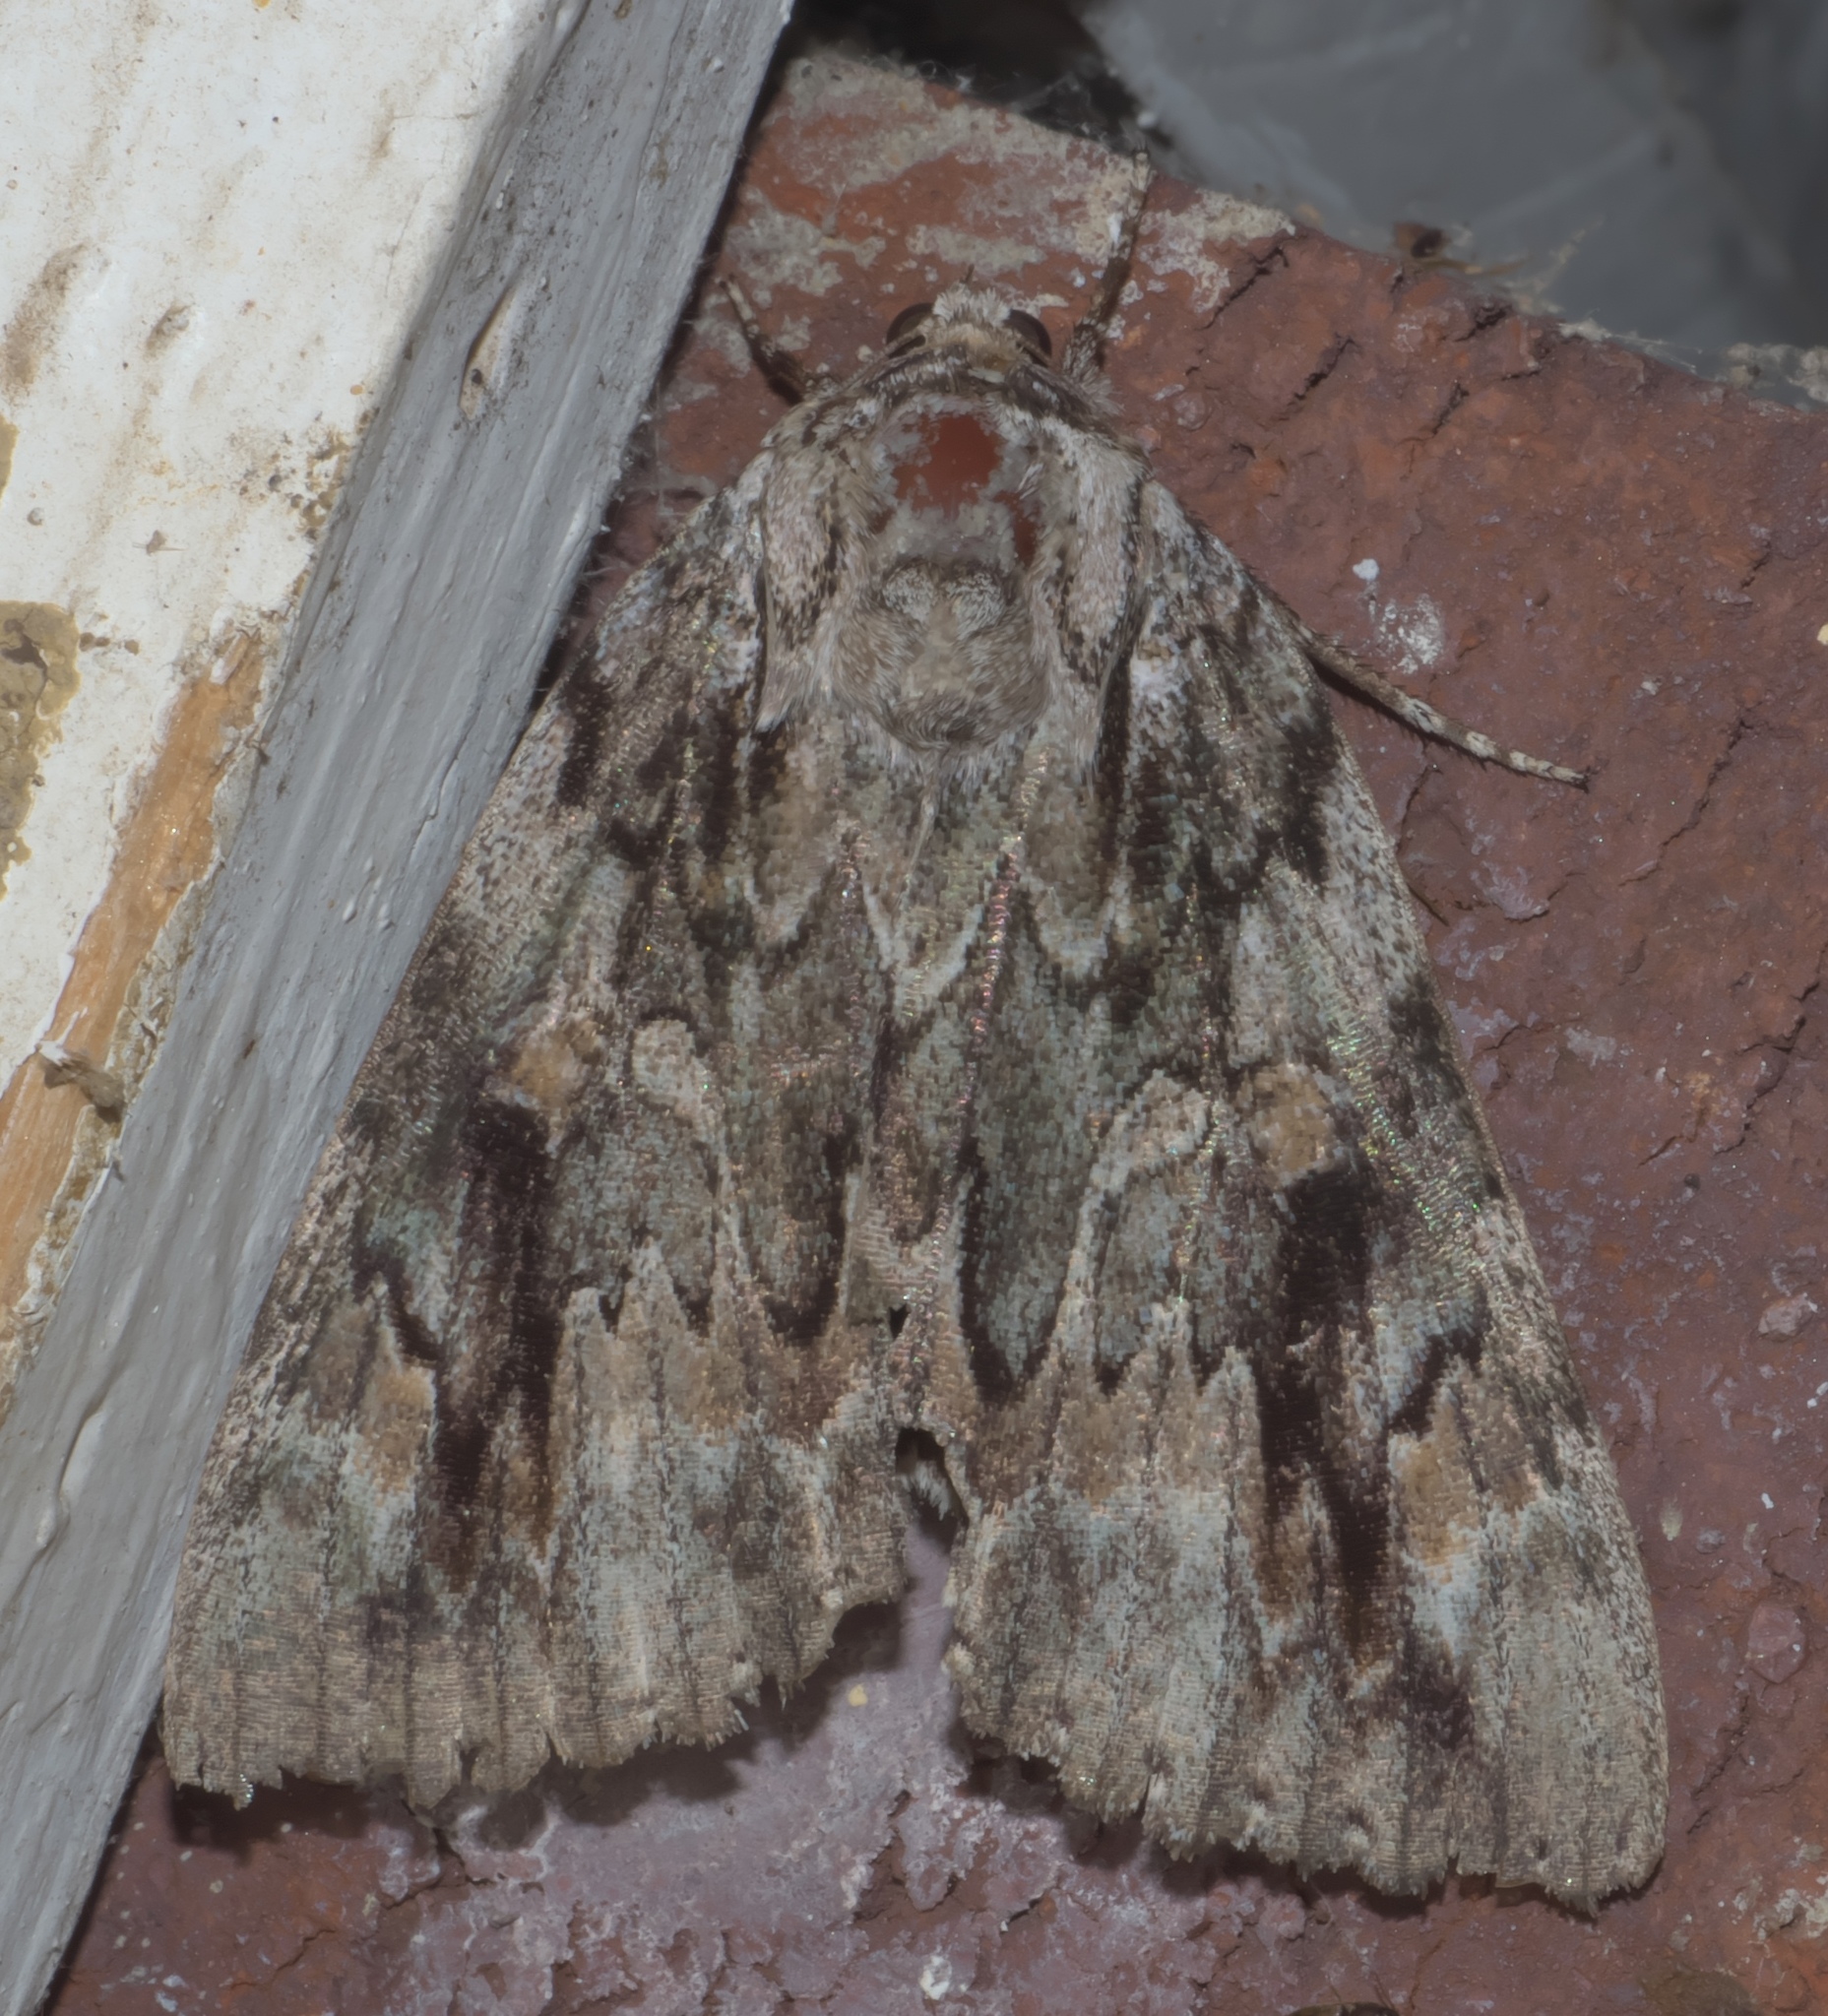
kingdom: Animalia
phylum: Arthropoda
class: Insecta
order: Lepidoptera
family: Erebidae
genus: Catocala
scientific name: Catocala agrippina
